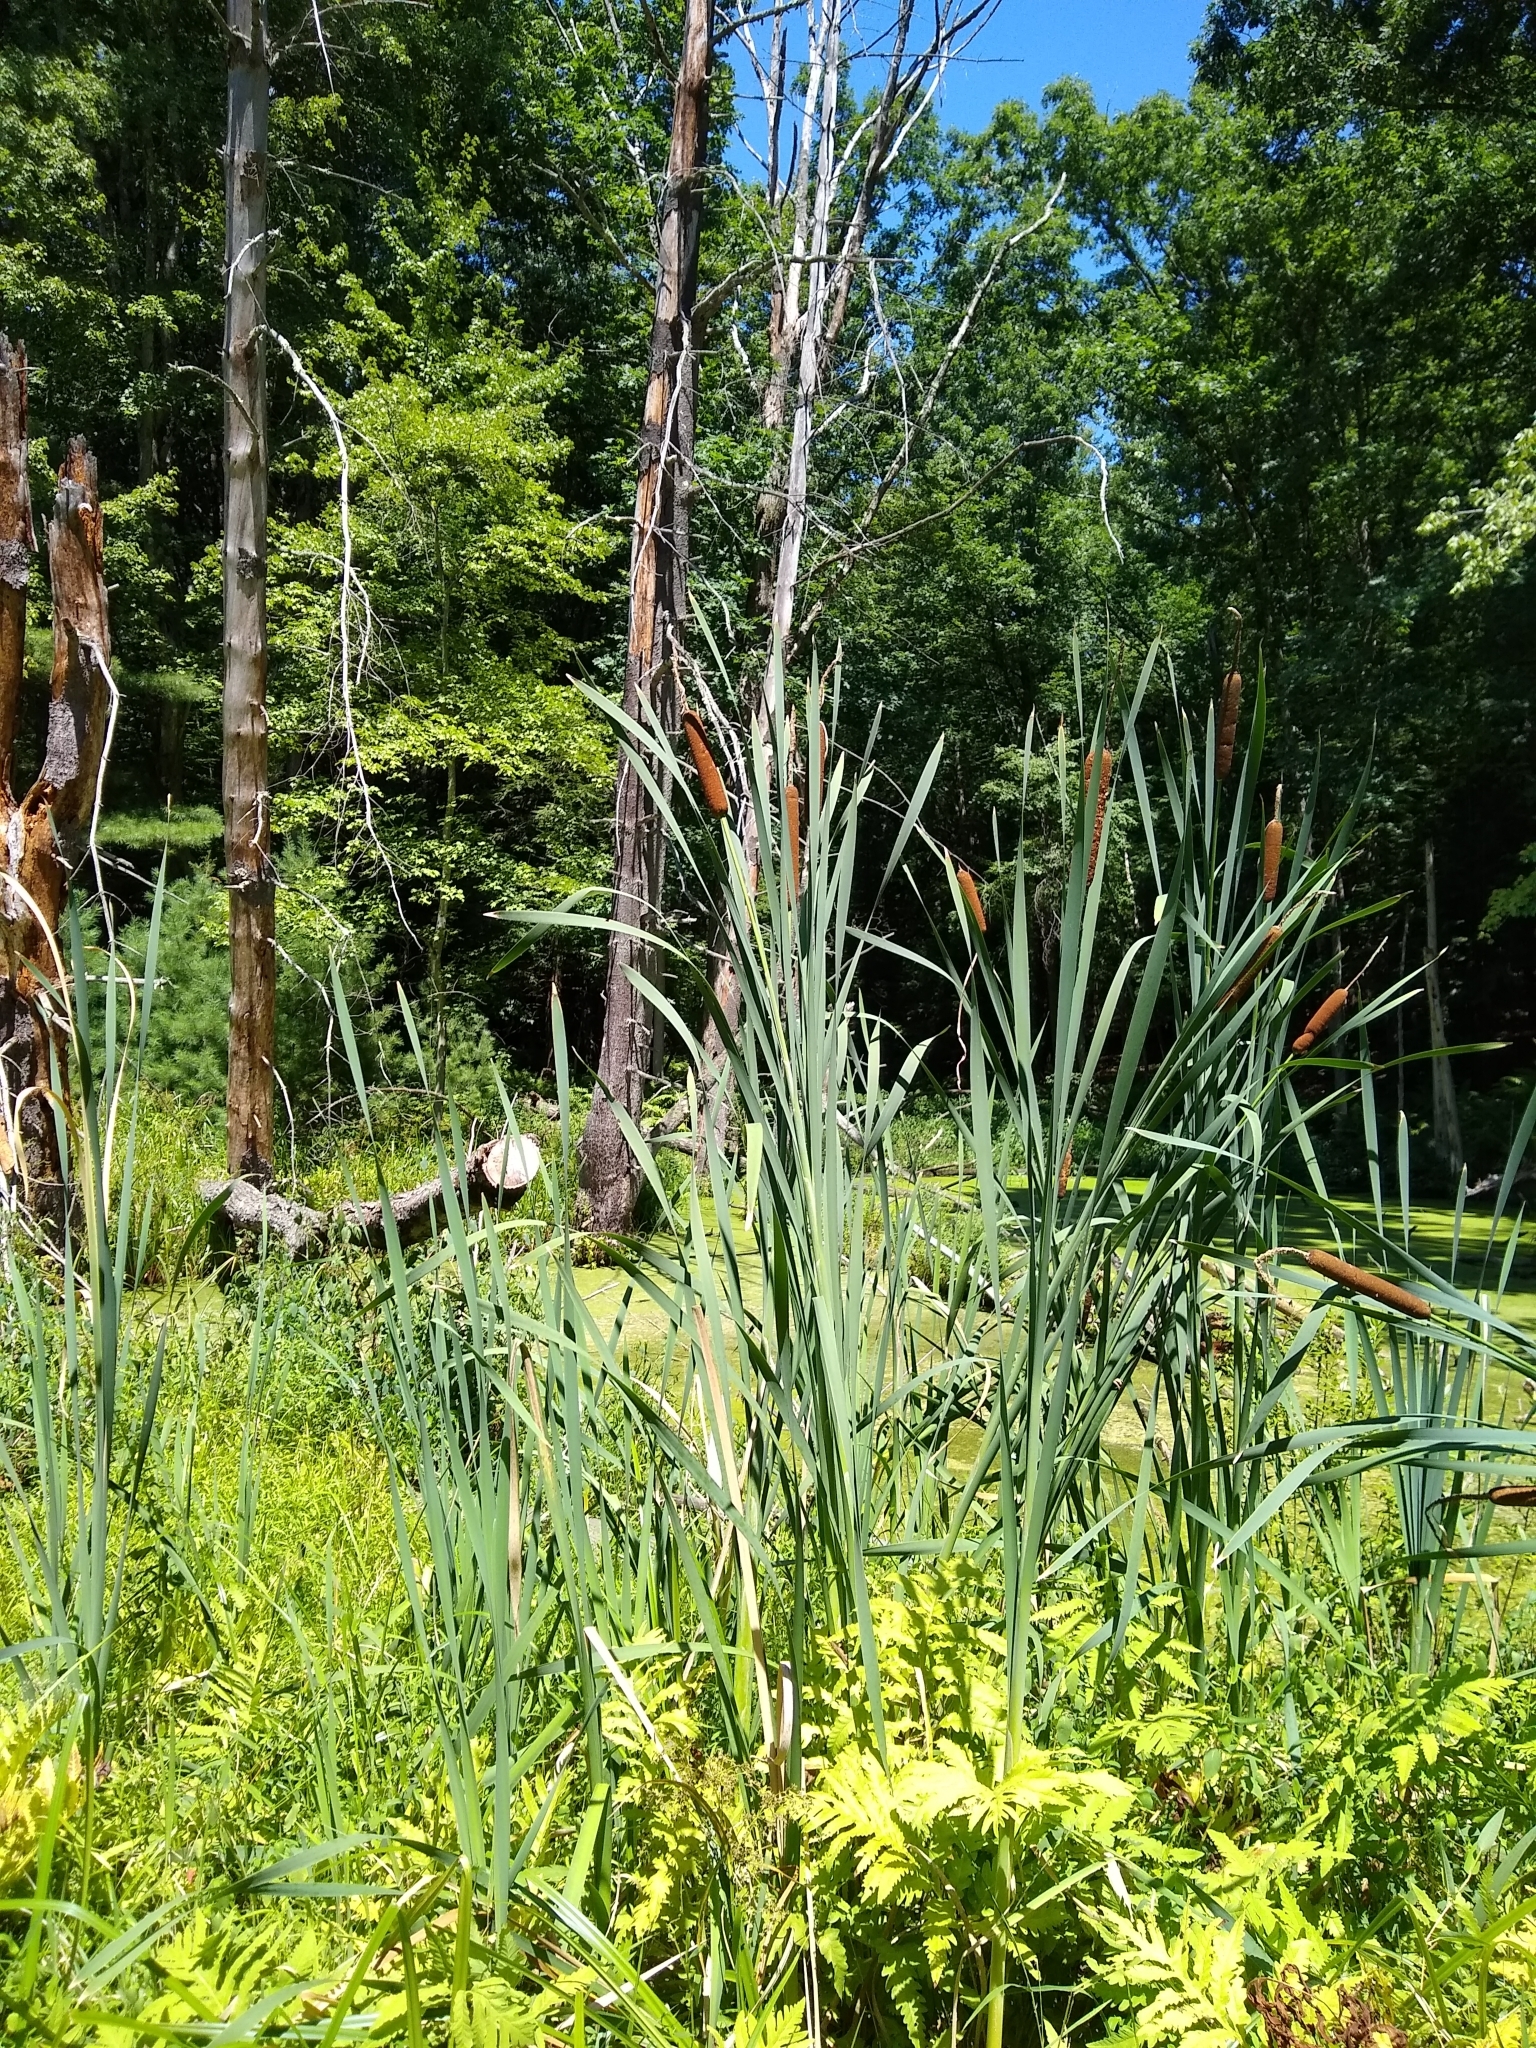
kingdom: Plantae
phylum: Tracheophyta
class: Liliopsida
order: Poales
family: Typhaceae
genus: Typha
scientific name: Typha latifolia
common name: Broadleaf cattail
